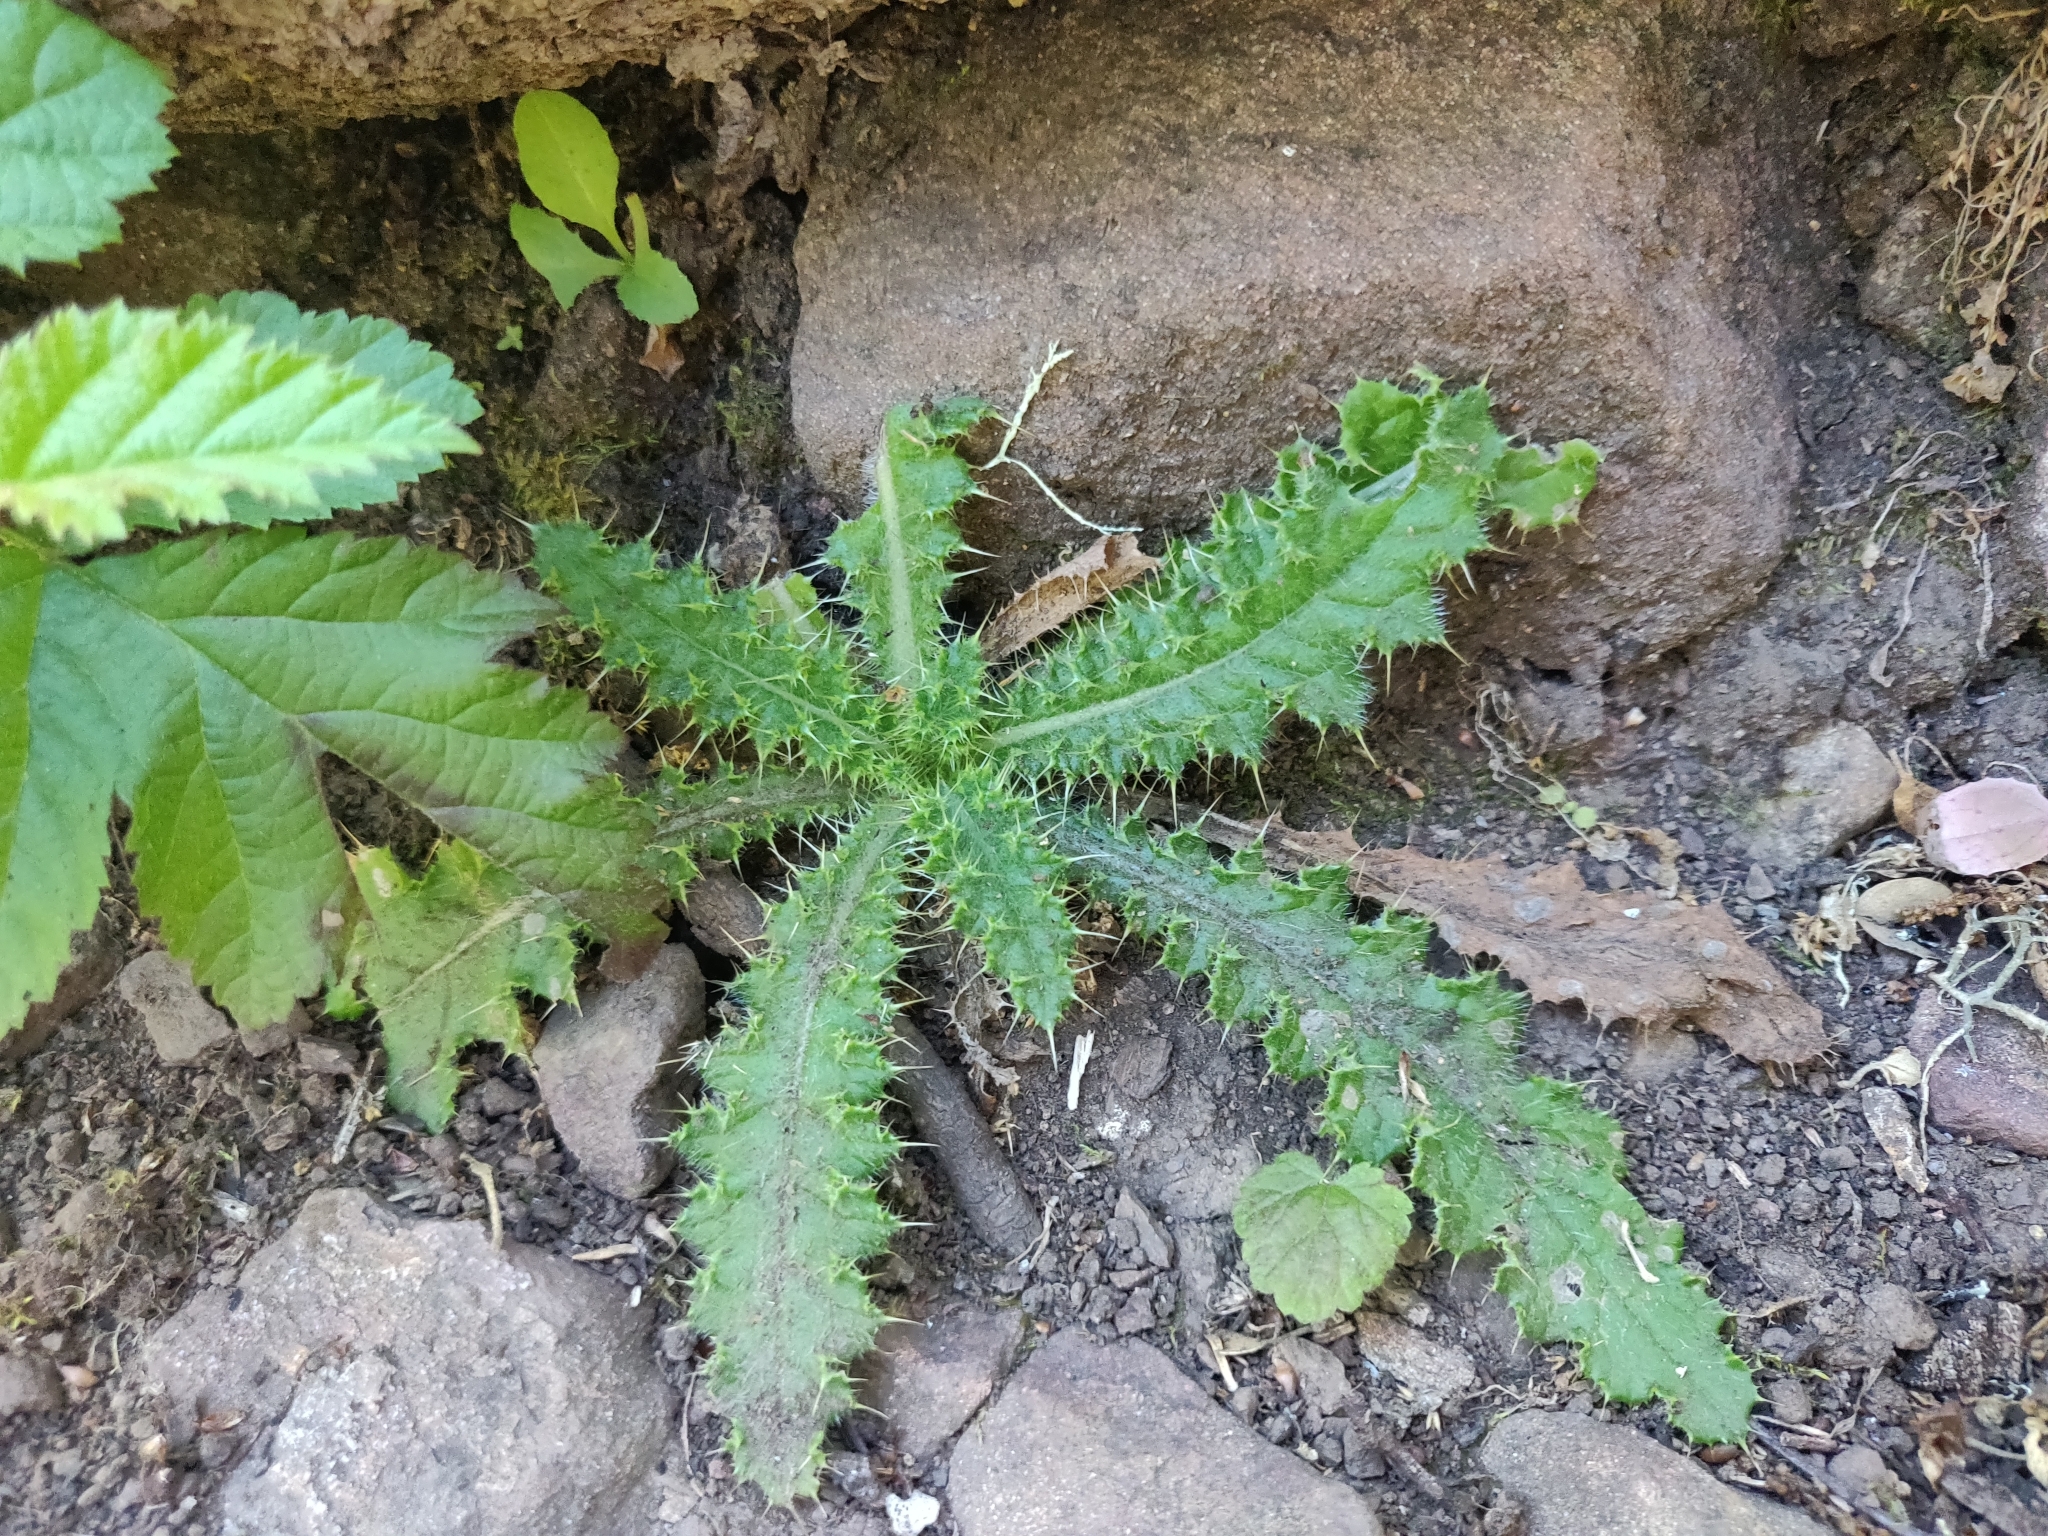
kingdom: Plantae
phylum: Tracheophyta
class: Magnoliopsida
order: Asterales
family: Asteraceae
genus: Cirsium
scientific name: Cirsium vulgare
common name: Bull thistle
